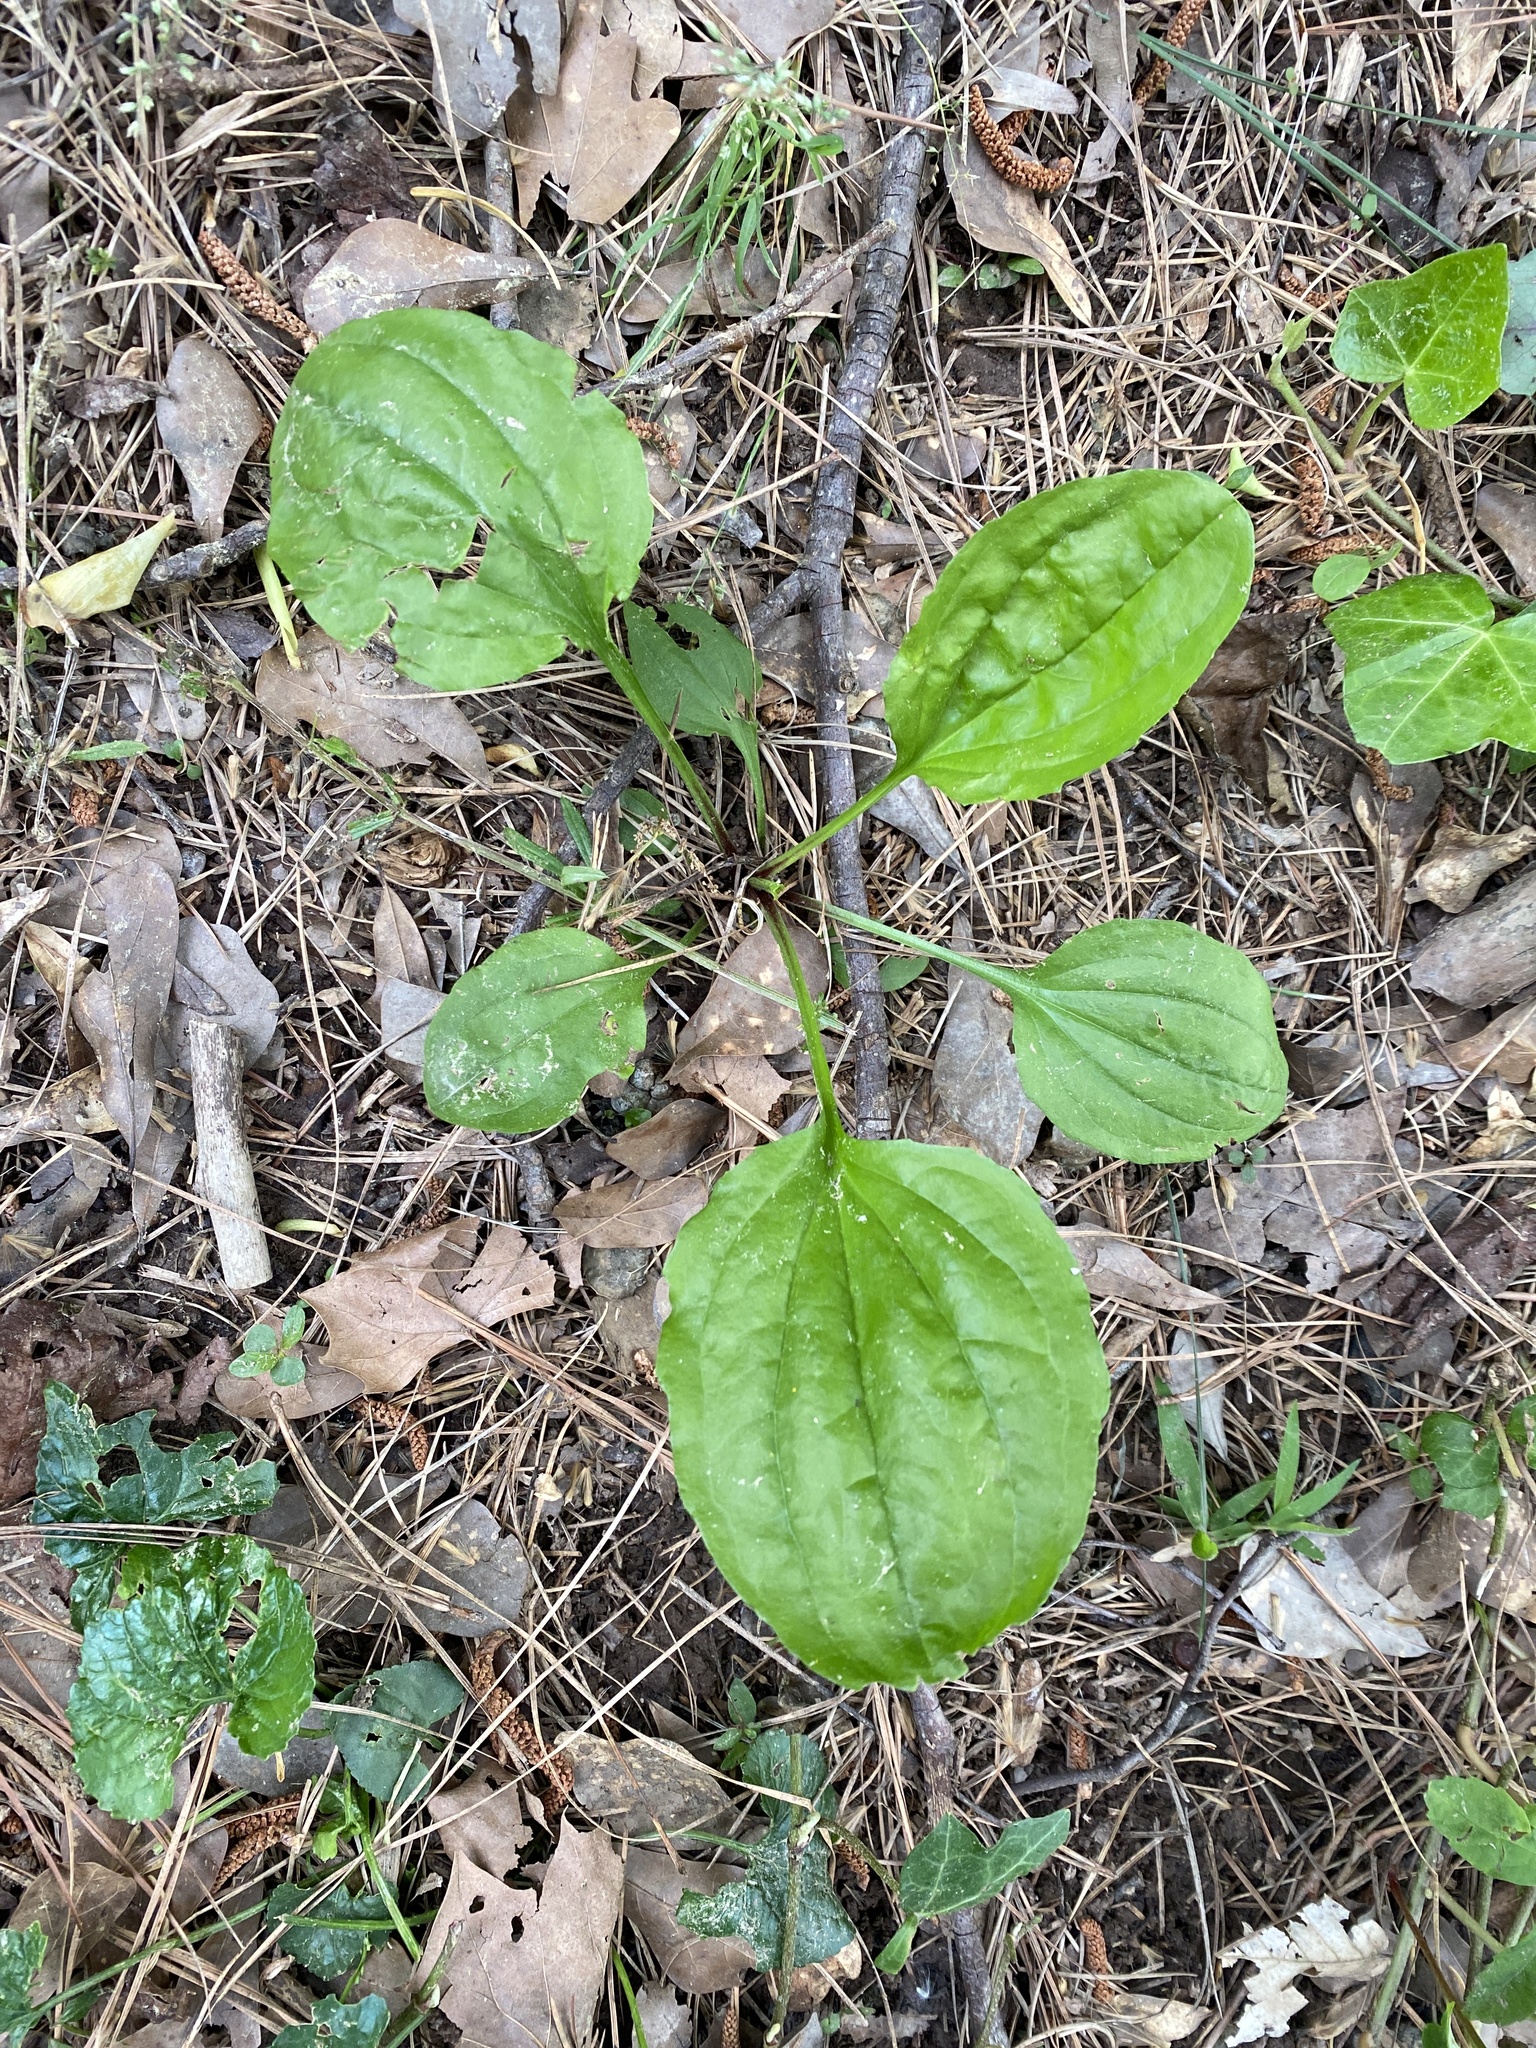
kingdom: Plantae
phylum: Tracheophyta
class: Magnoliopsida
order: Lamiales
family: Plantaginaceae
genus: Plantago
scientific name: Plantago rugelii
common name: American plantain
